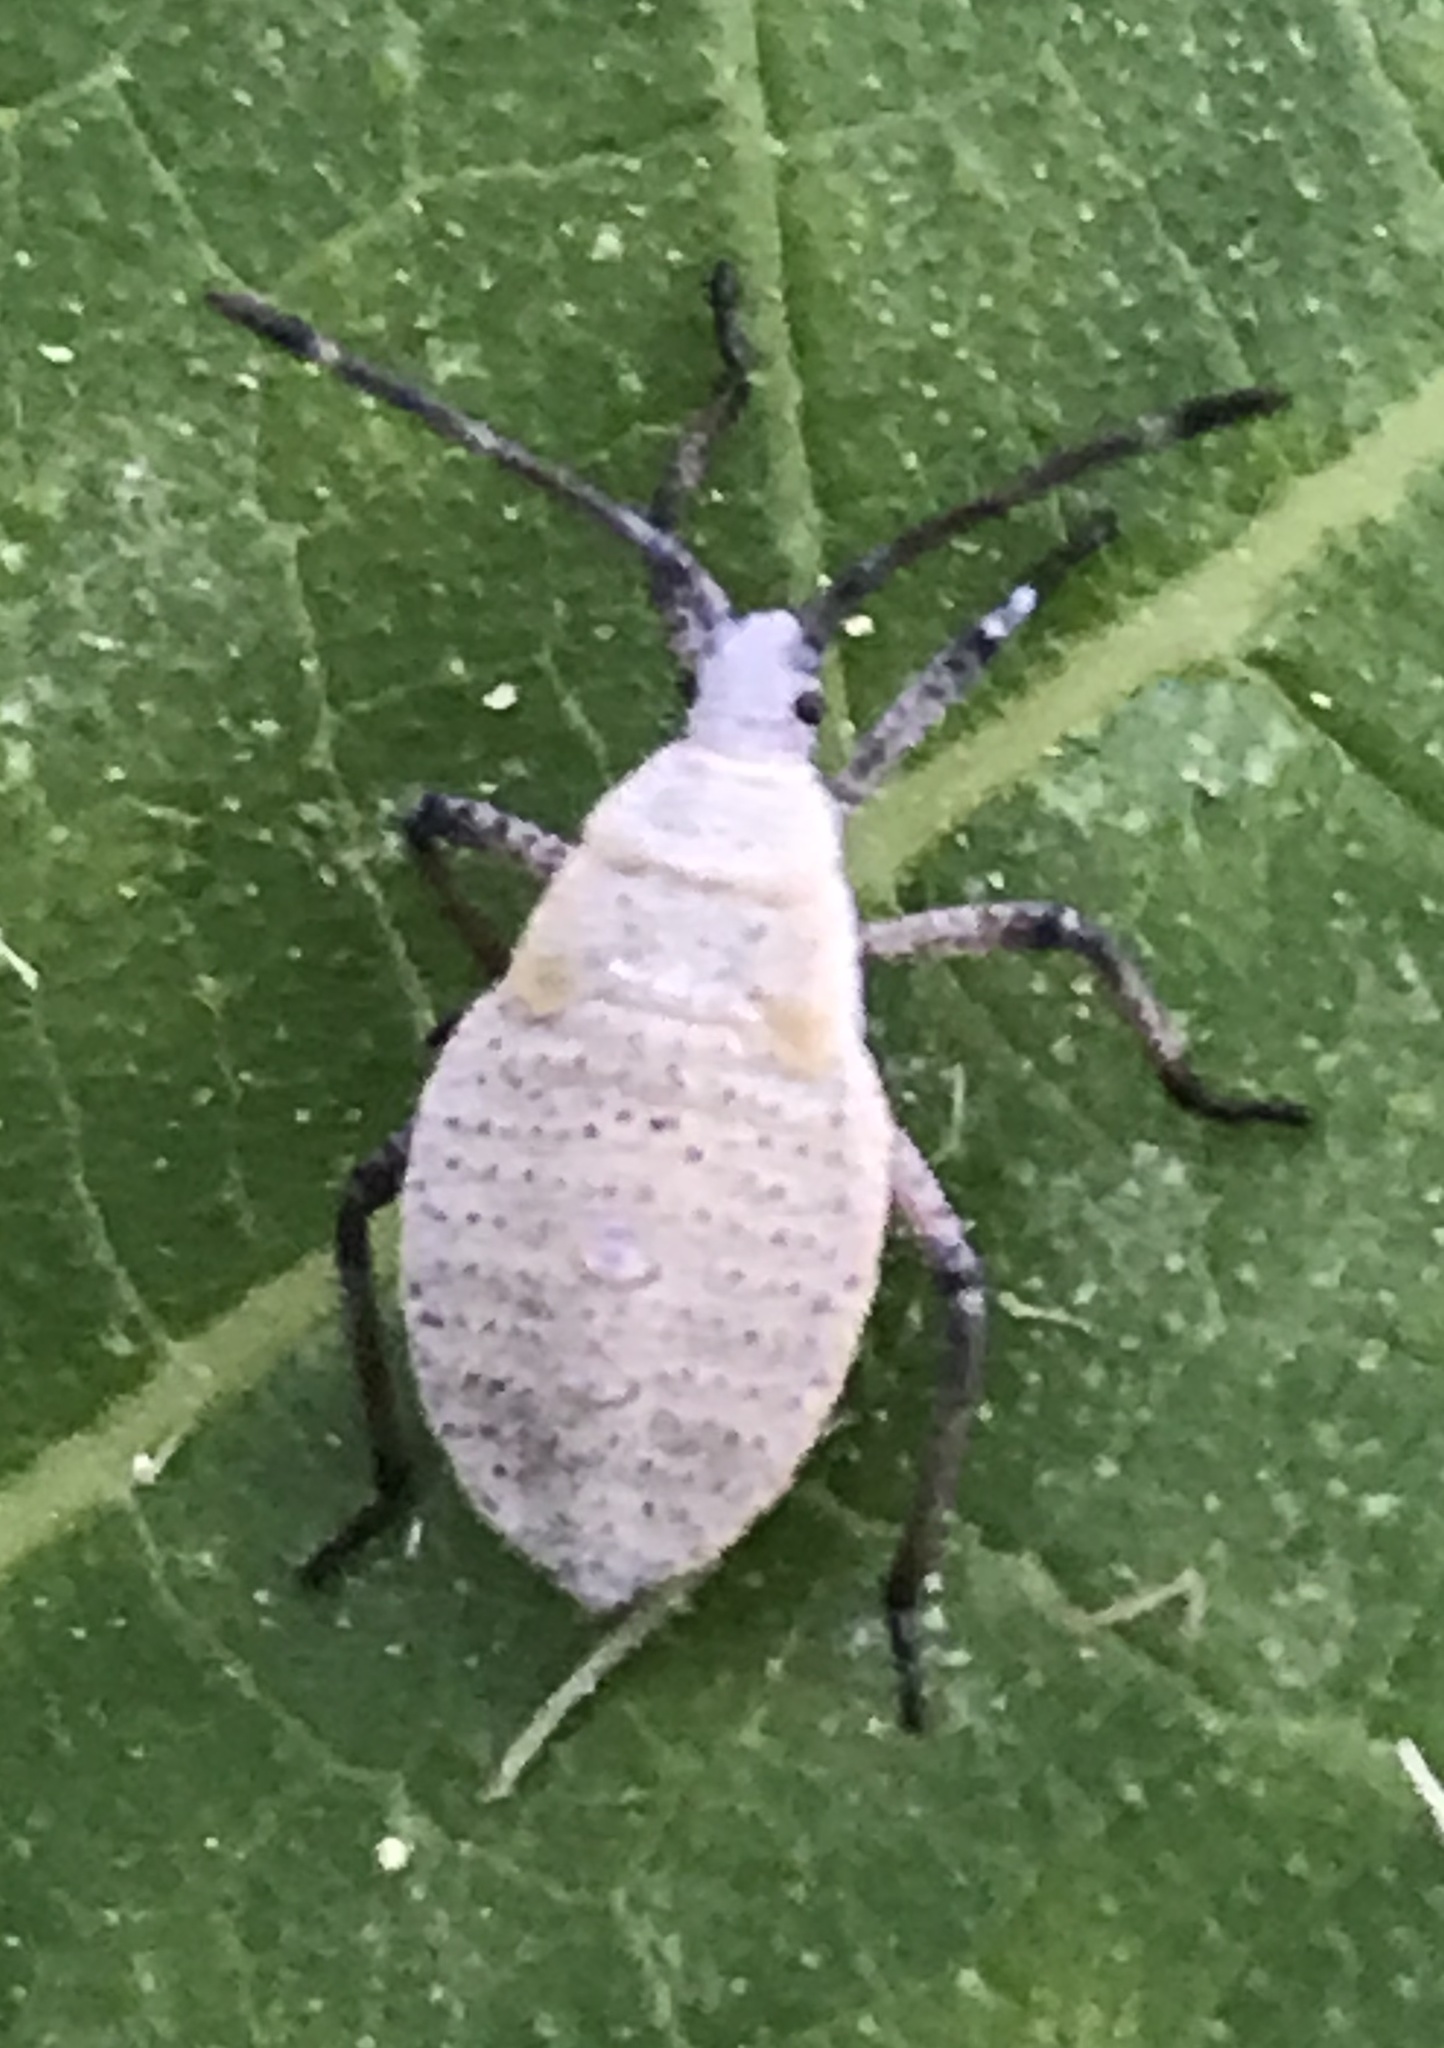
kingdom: Animalia
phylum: Arthropoda
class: Insecta
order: Hemiptera
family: Coreidae
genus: Anasa
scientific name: Anasa tristis
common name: Squash bug
